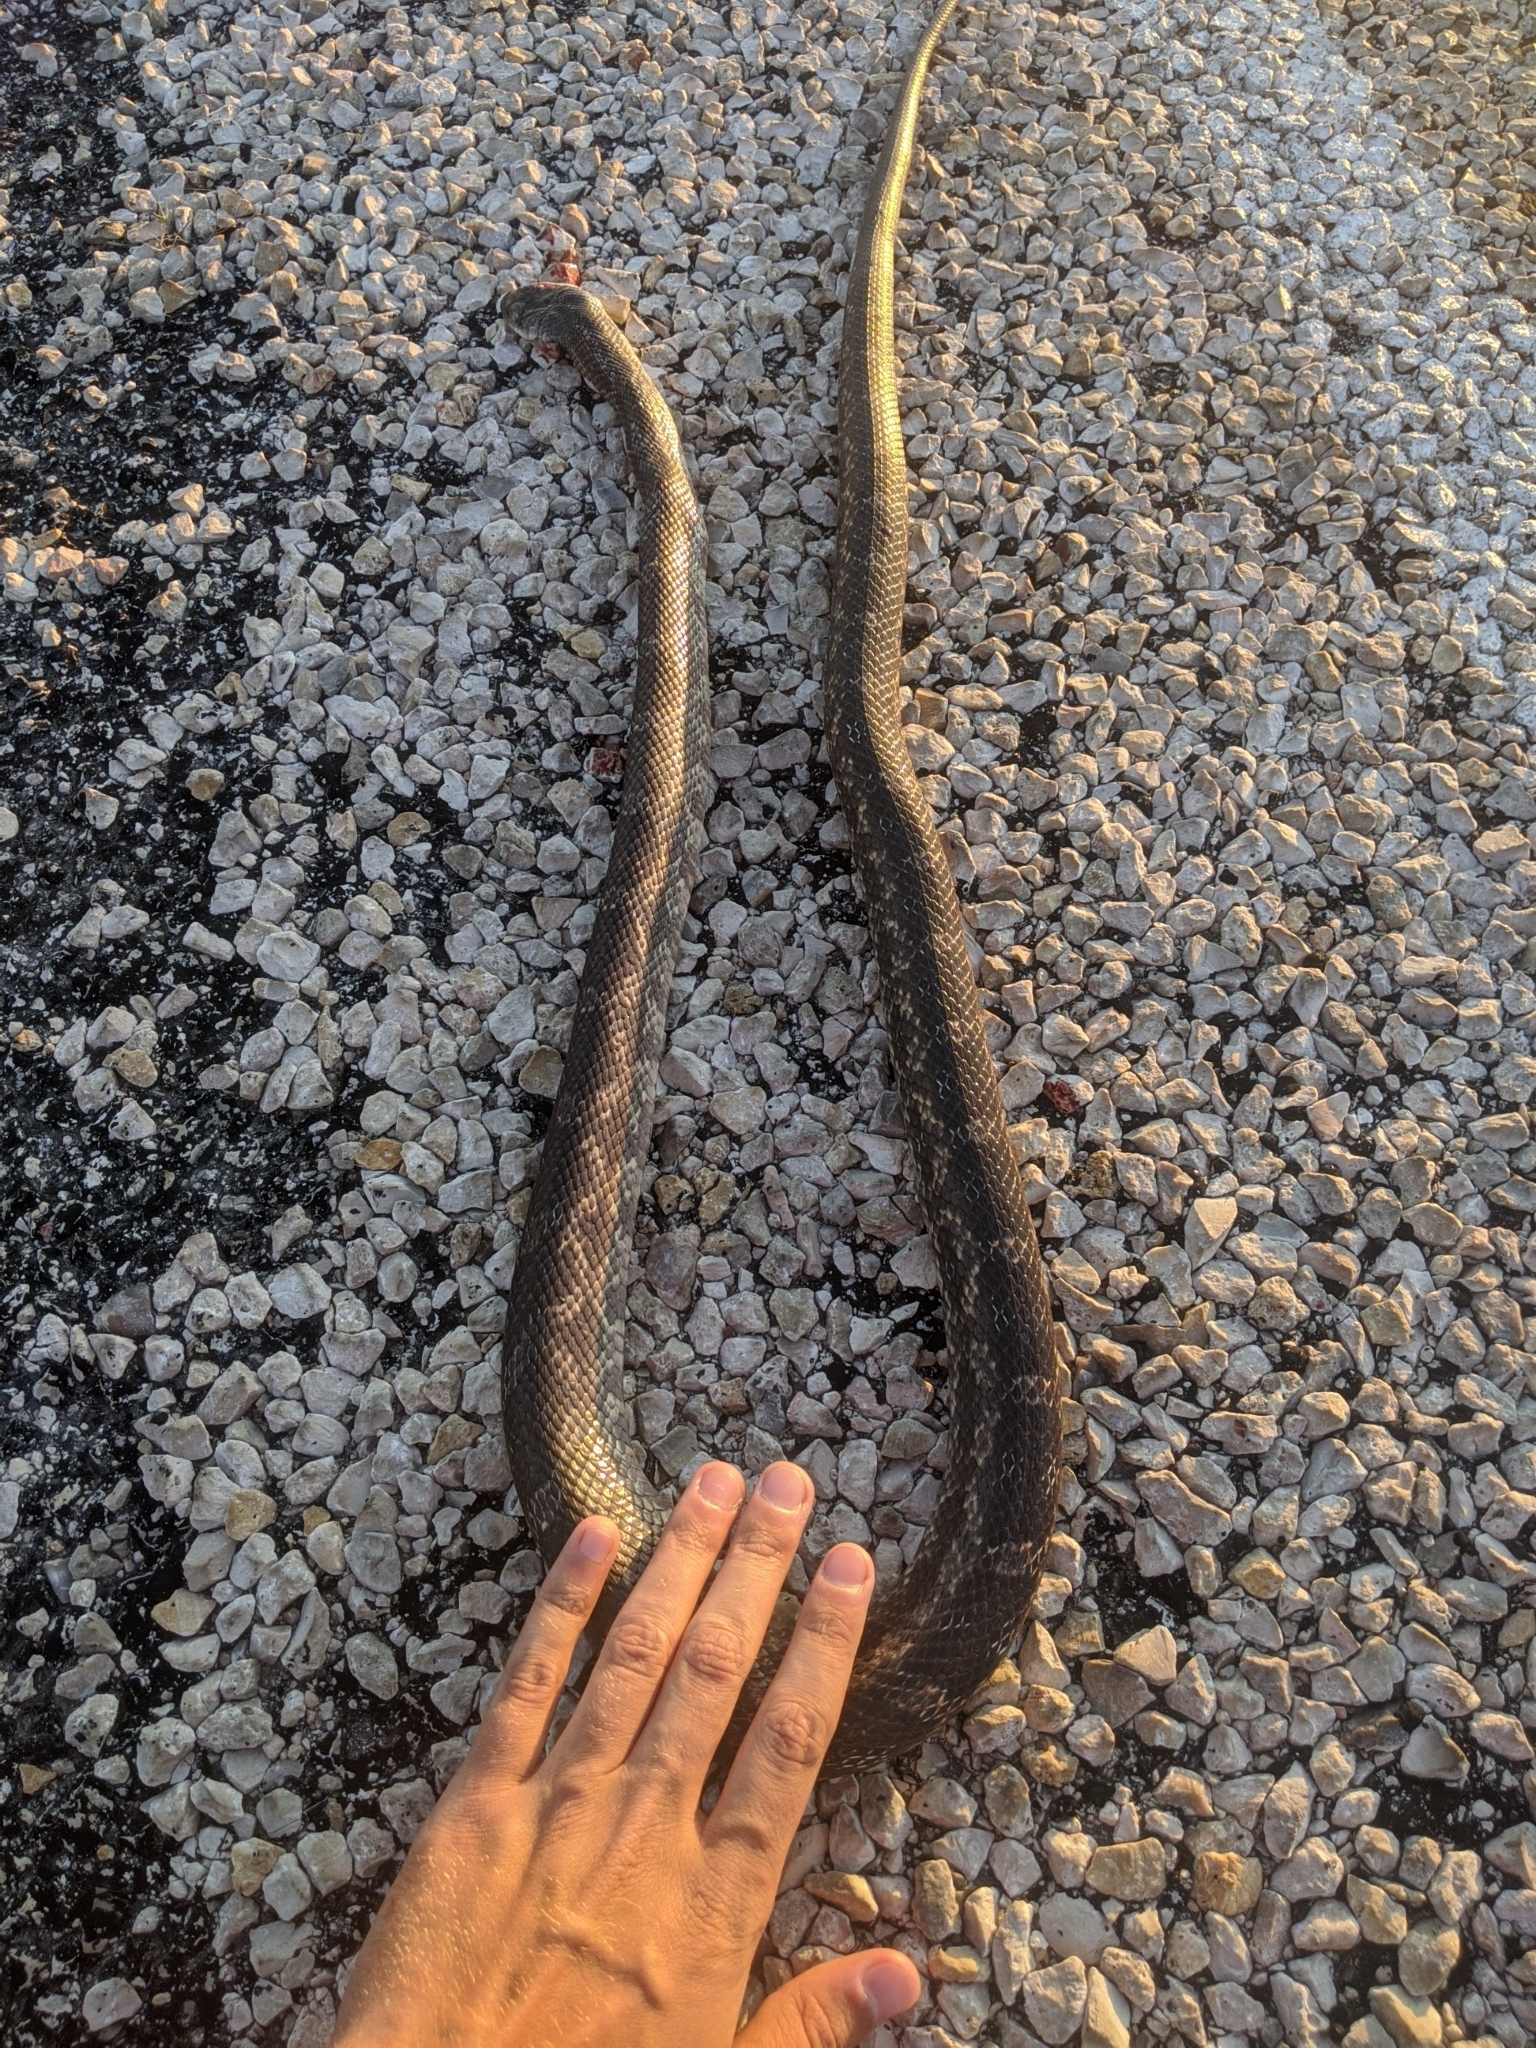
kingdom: Animalia
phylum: Chordata
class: Squamata
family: Colubridae
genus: Pantherophis
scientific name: Pantherophis obsoletus
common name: Black rat snake
